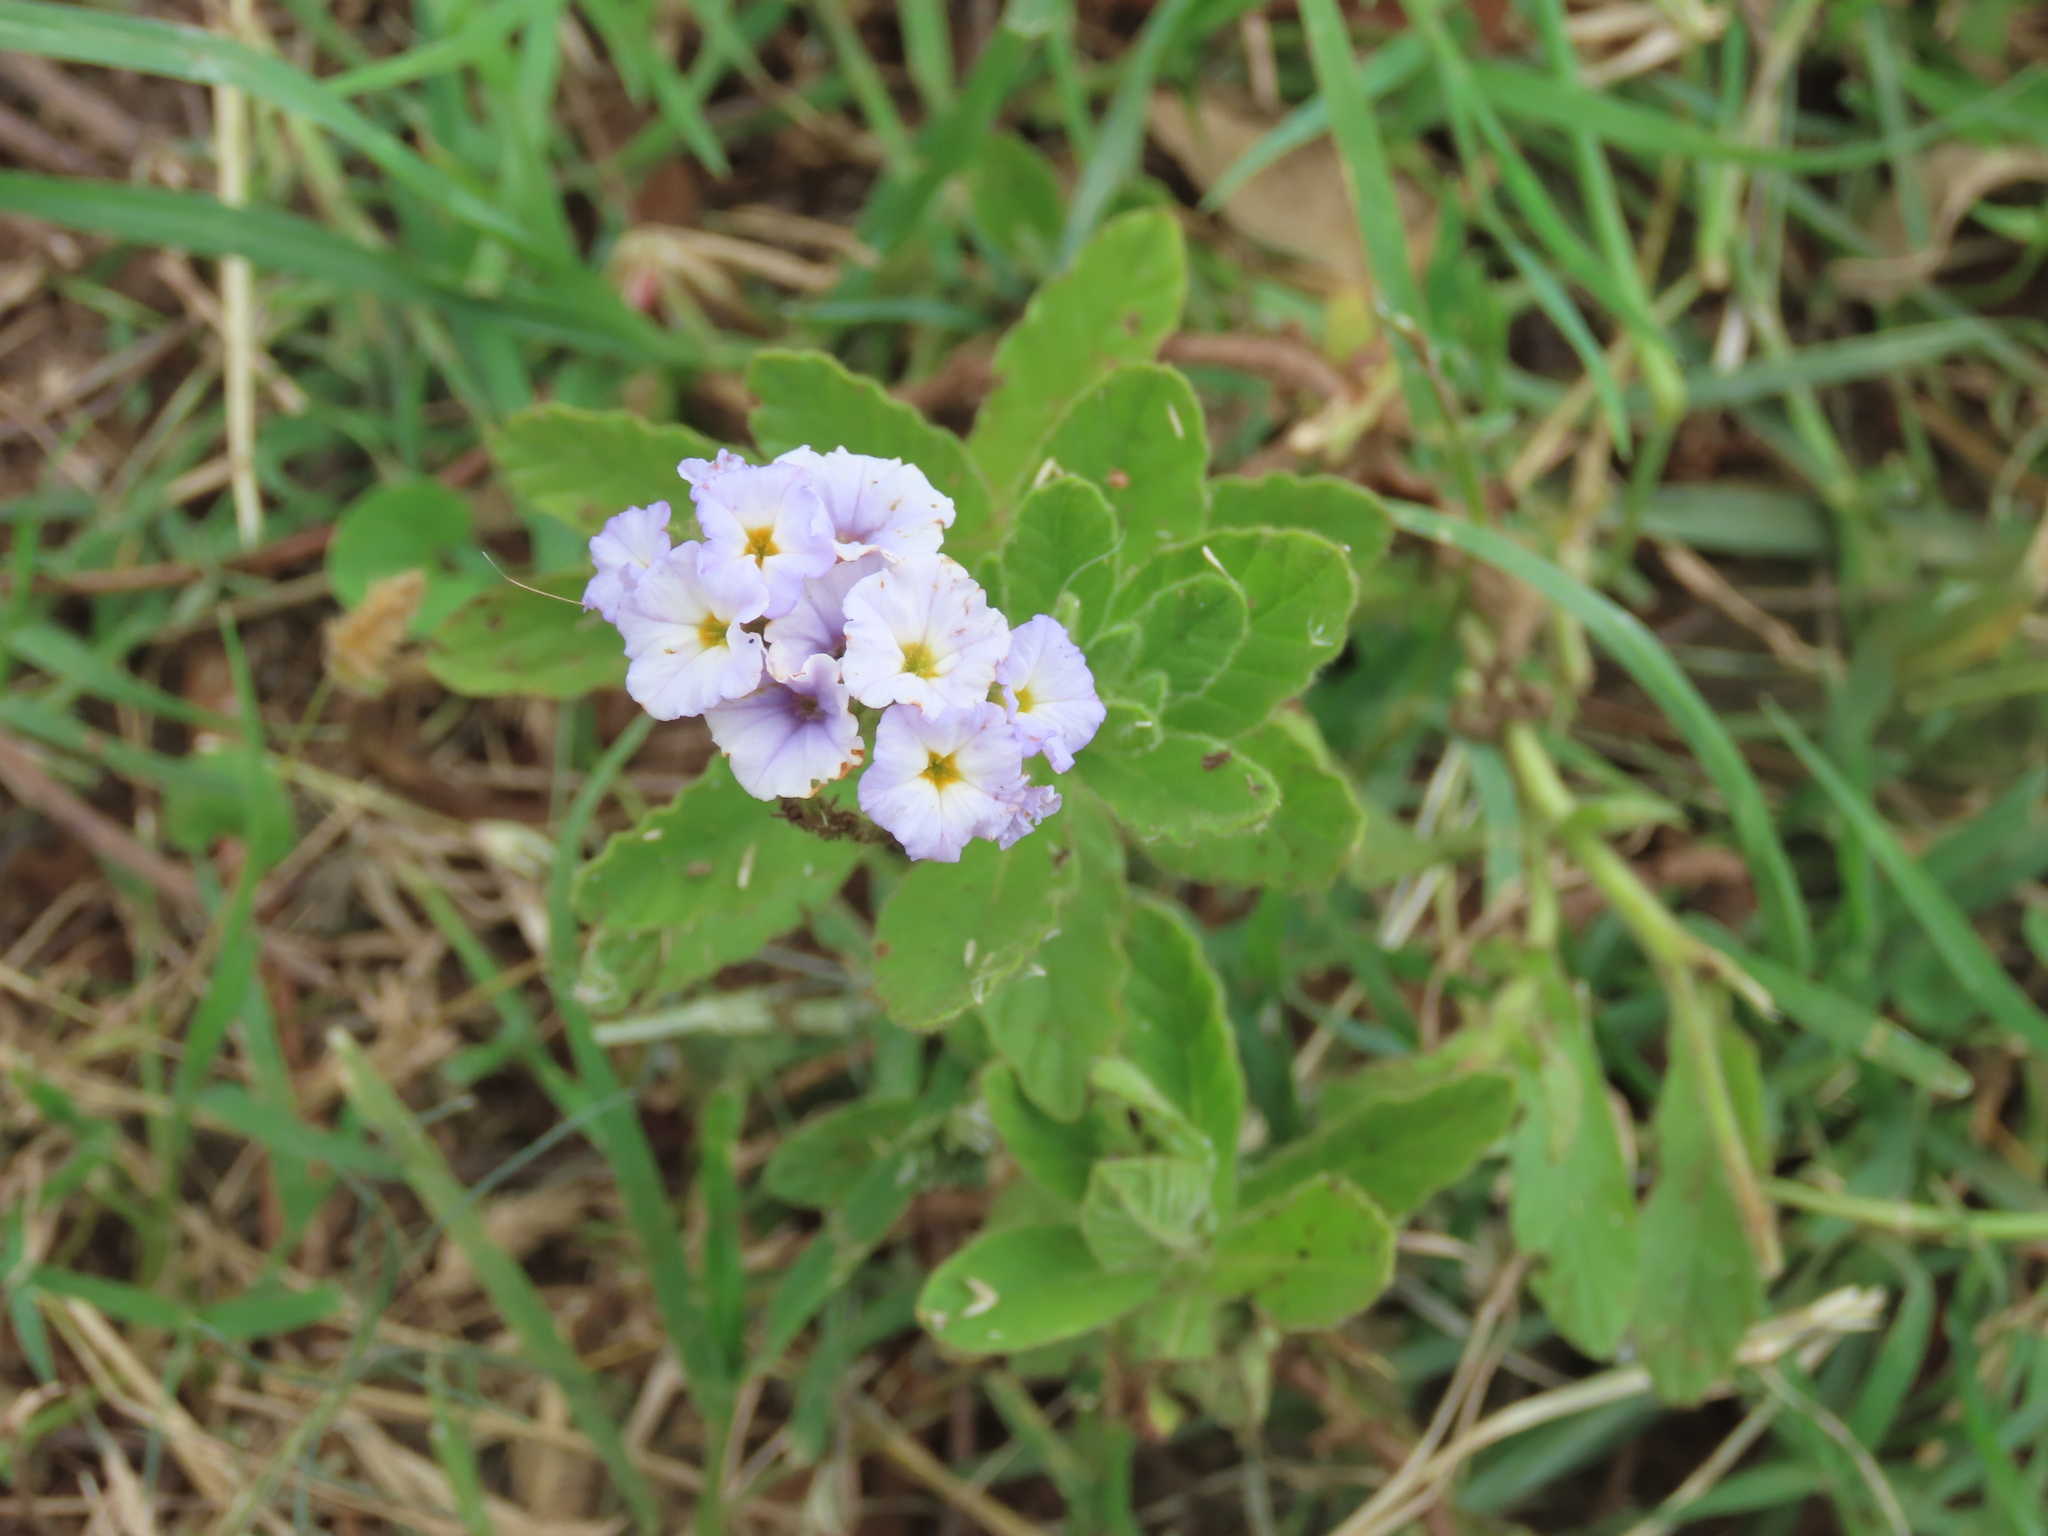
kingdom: Plantae
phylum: Tracheophyta
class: Magnoliopsida
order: Boraginales
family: Heliotropiaceae
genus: Heliotropium
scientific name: Heliotropium amplexicaule
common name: Clasping heliotrope
